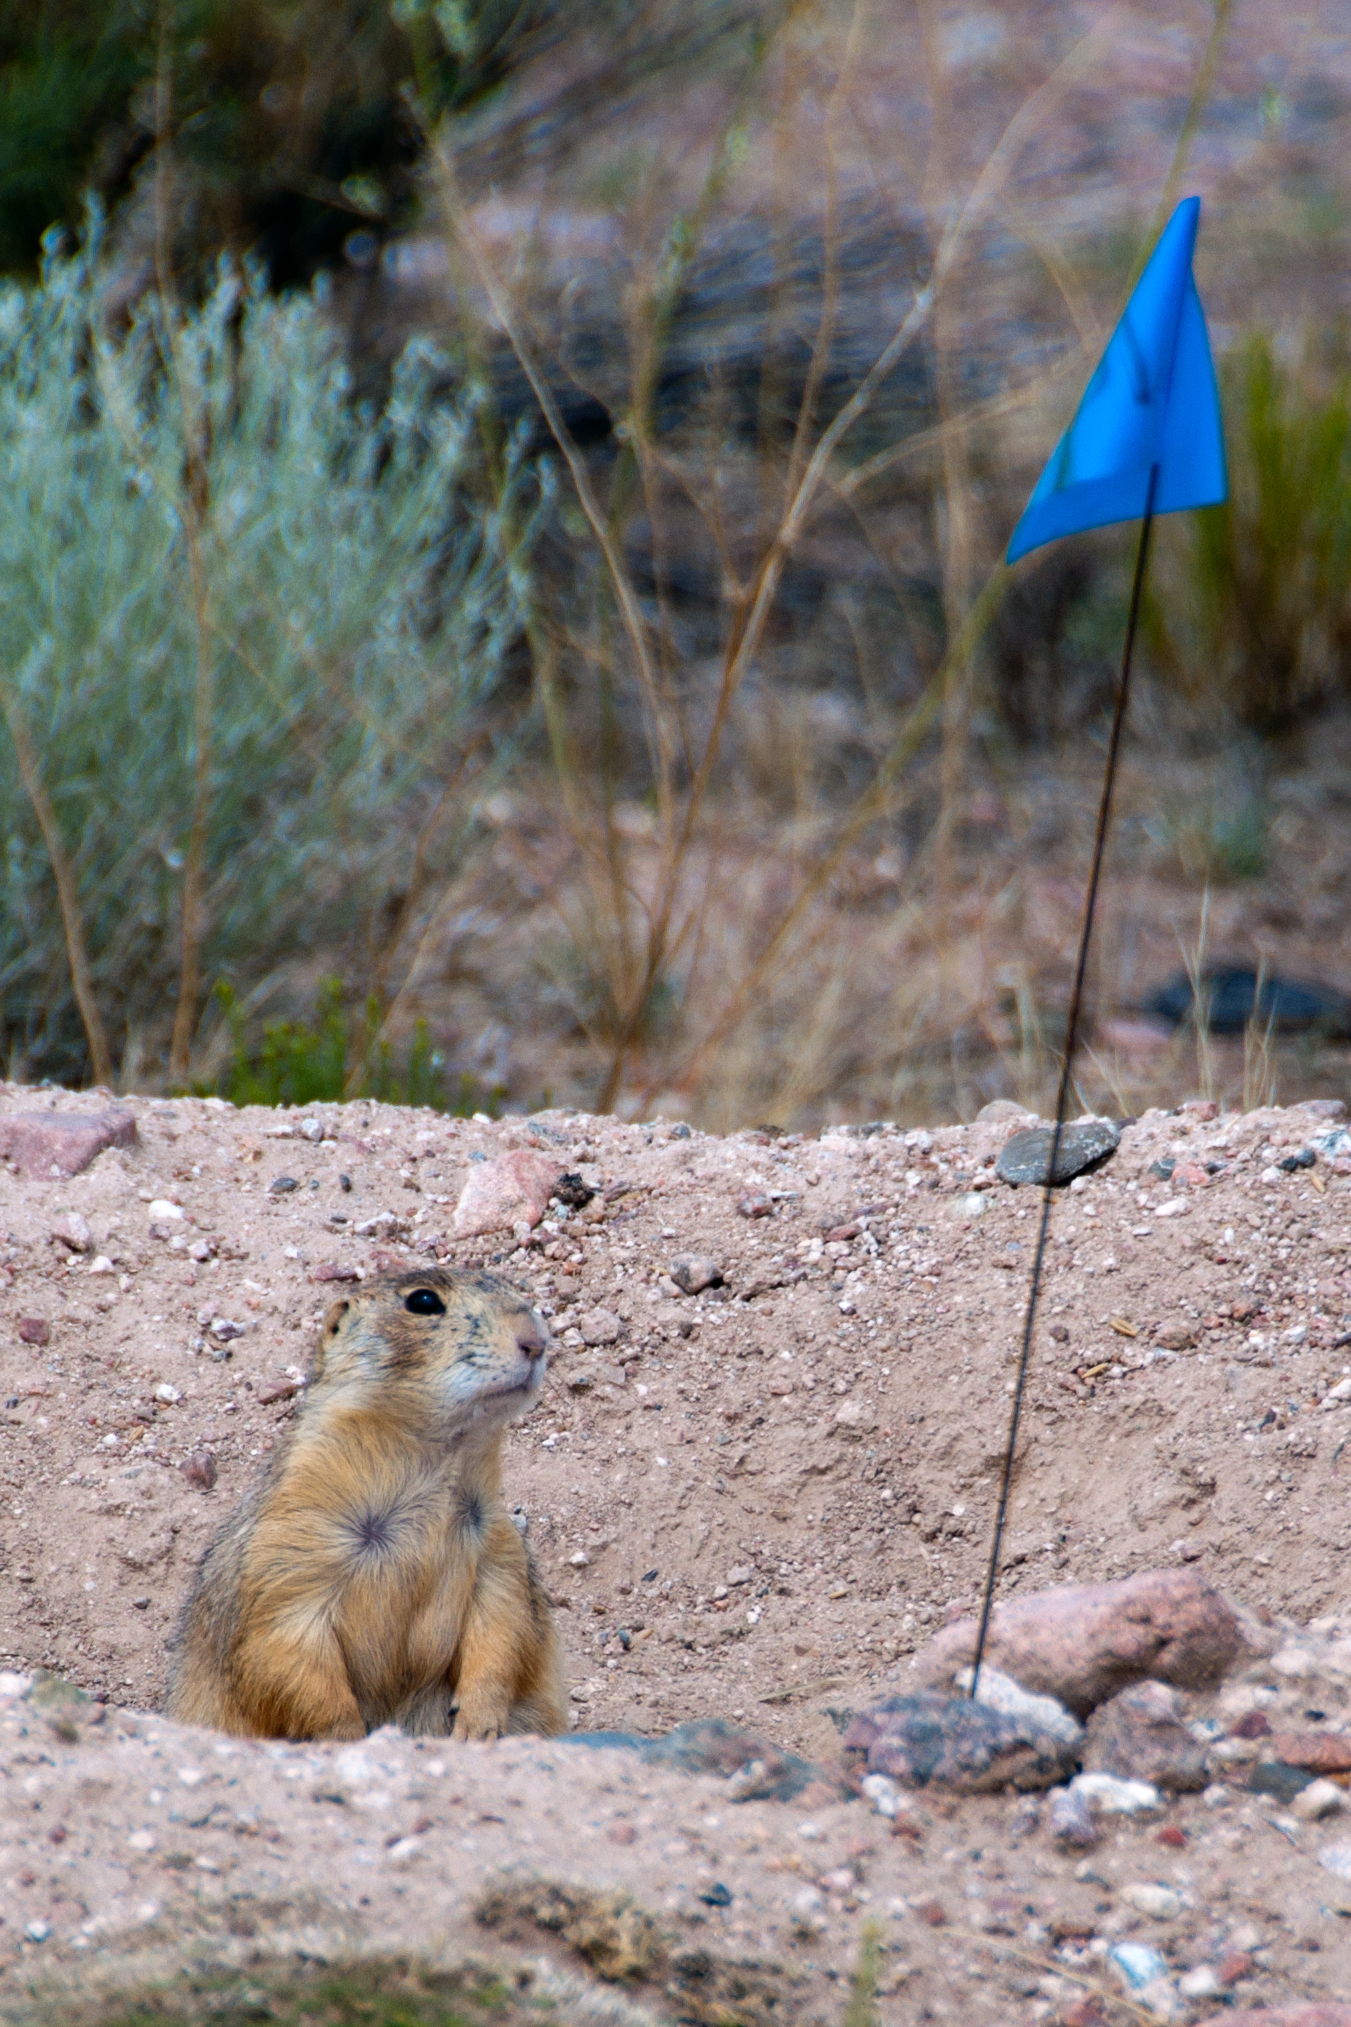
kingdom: Animalia
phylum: Chordata
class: Mammalia
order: Rodentia
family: Sciuridae
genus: Cynomys
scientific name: Cynomys gunnisoni
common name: Gunnison's prairie dog
